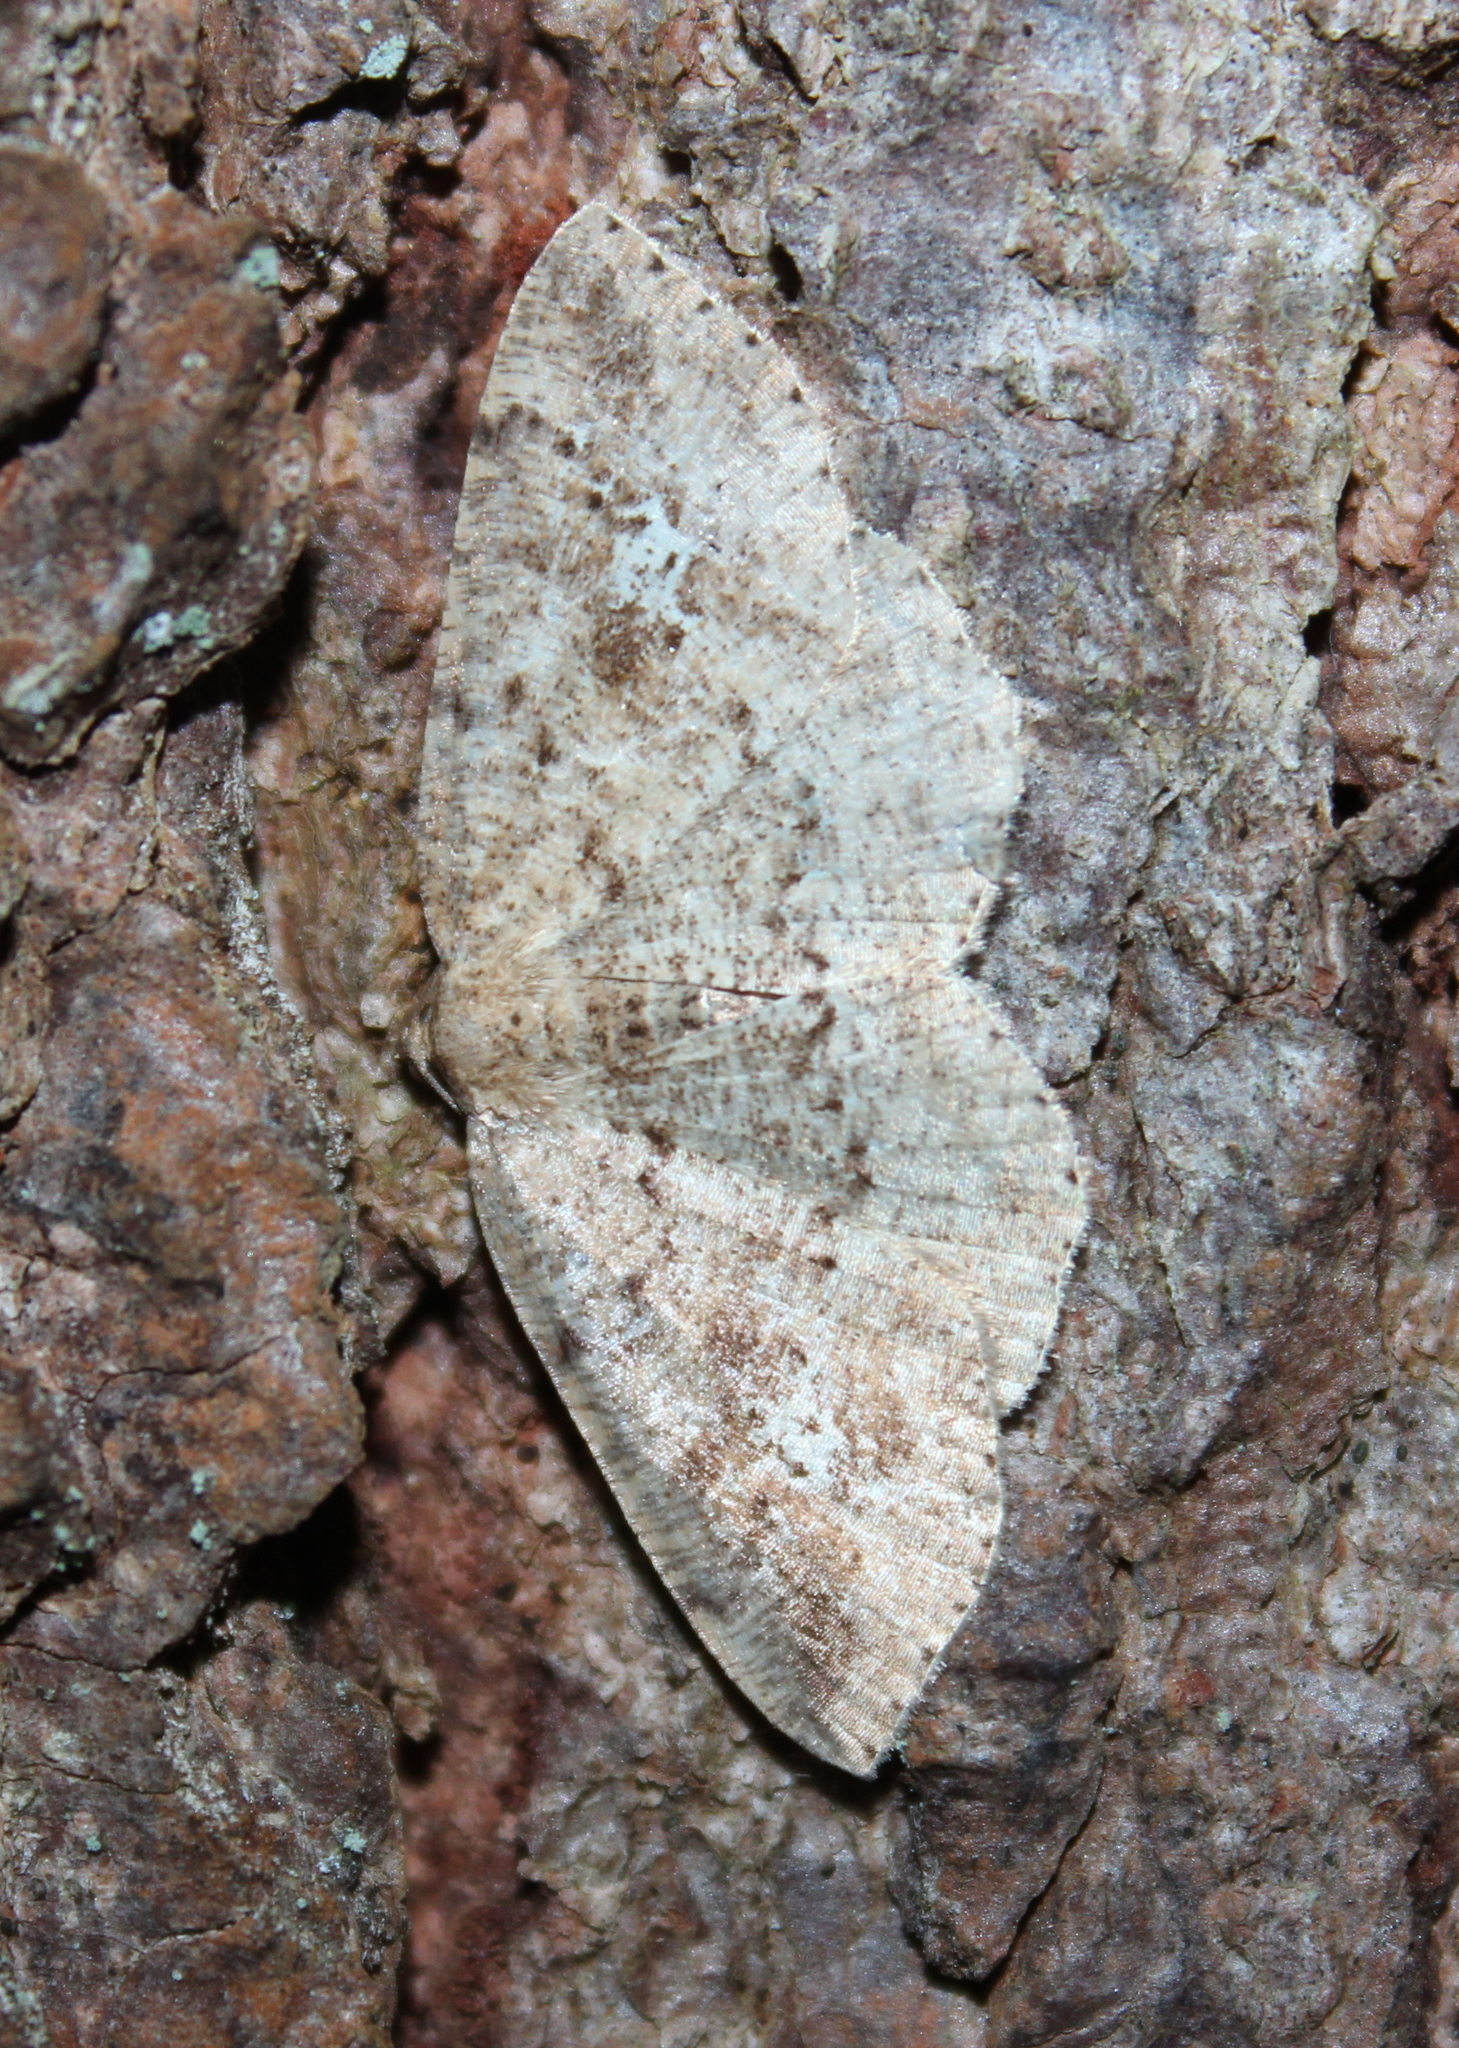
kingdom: Animalia
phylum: Arthropoda
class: Insecta
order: Lepidoptera
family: Geometridae
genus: Homochlodes
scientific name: Homochlodes fritillaria
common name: Pale homochlodes
